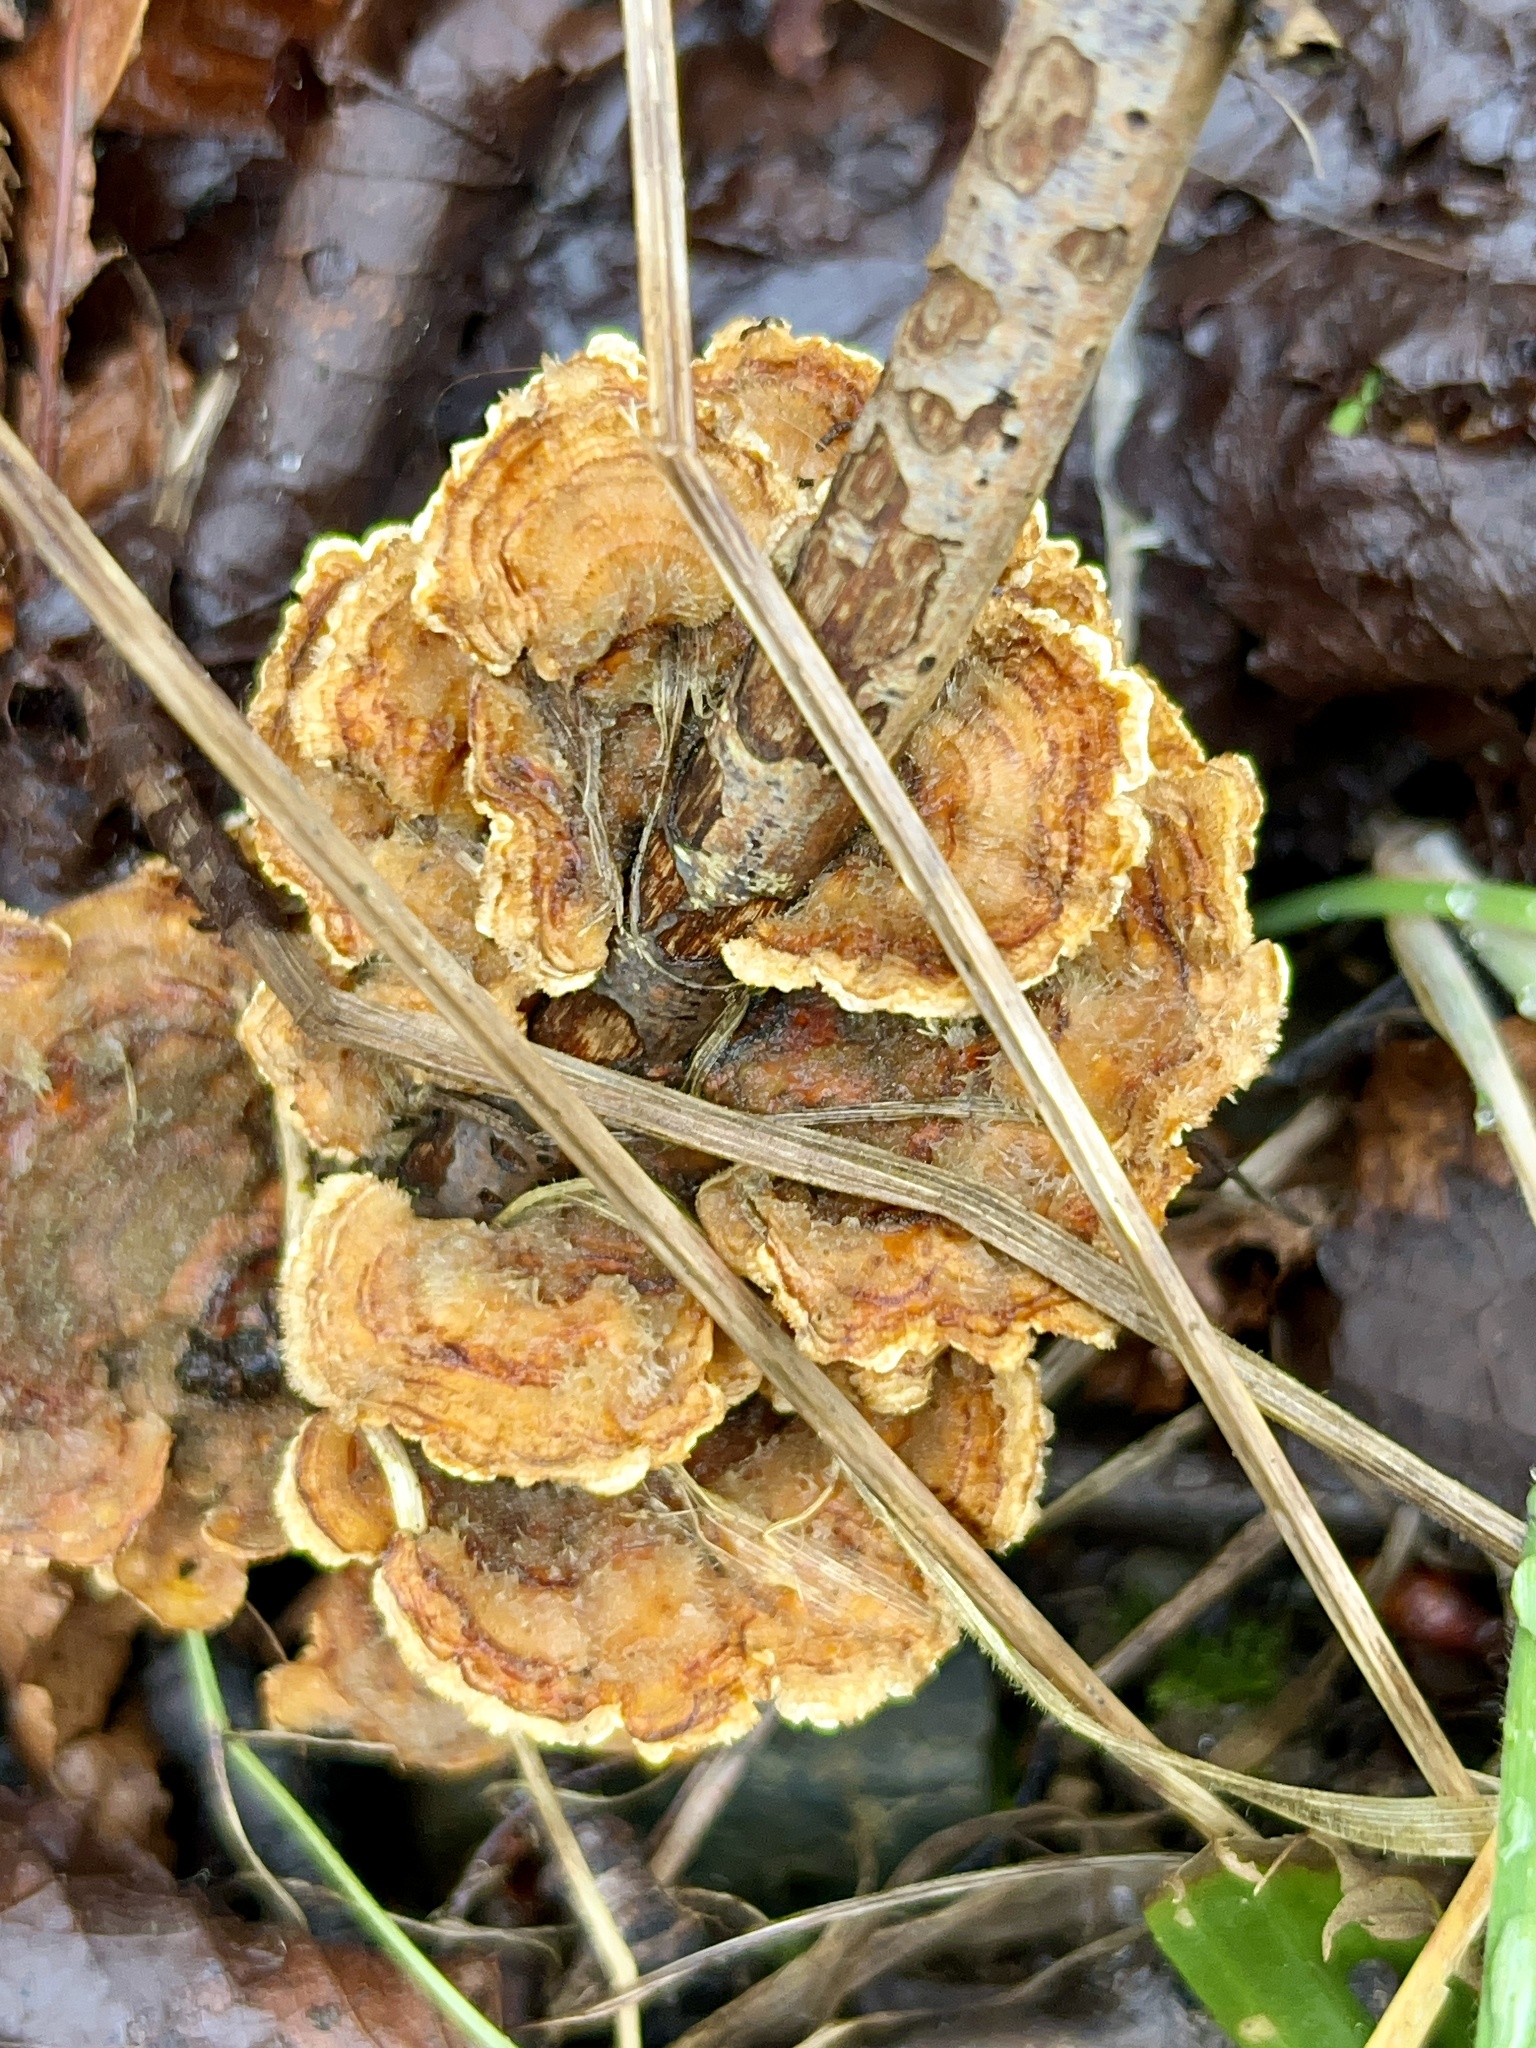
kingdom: Fungi
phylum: Basidiomycota
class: Agaricomycetes
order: Russulales
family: Stereaceae
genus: Stereum
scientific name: Stereum hirsutum
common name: Hairy curtain crust
